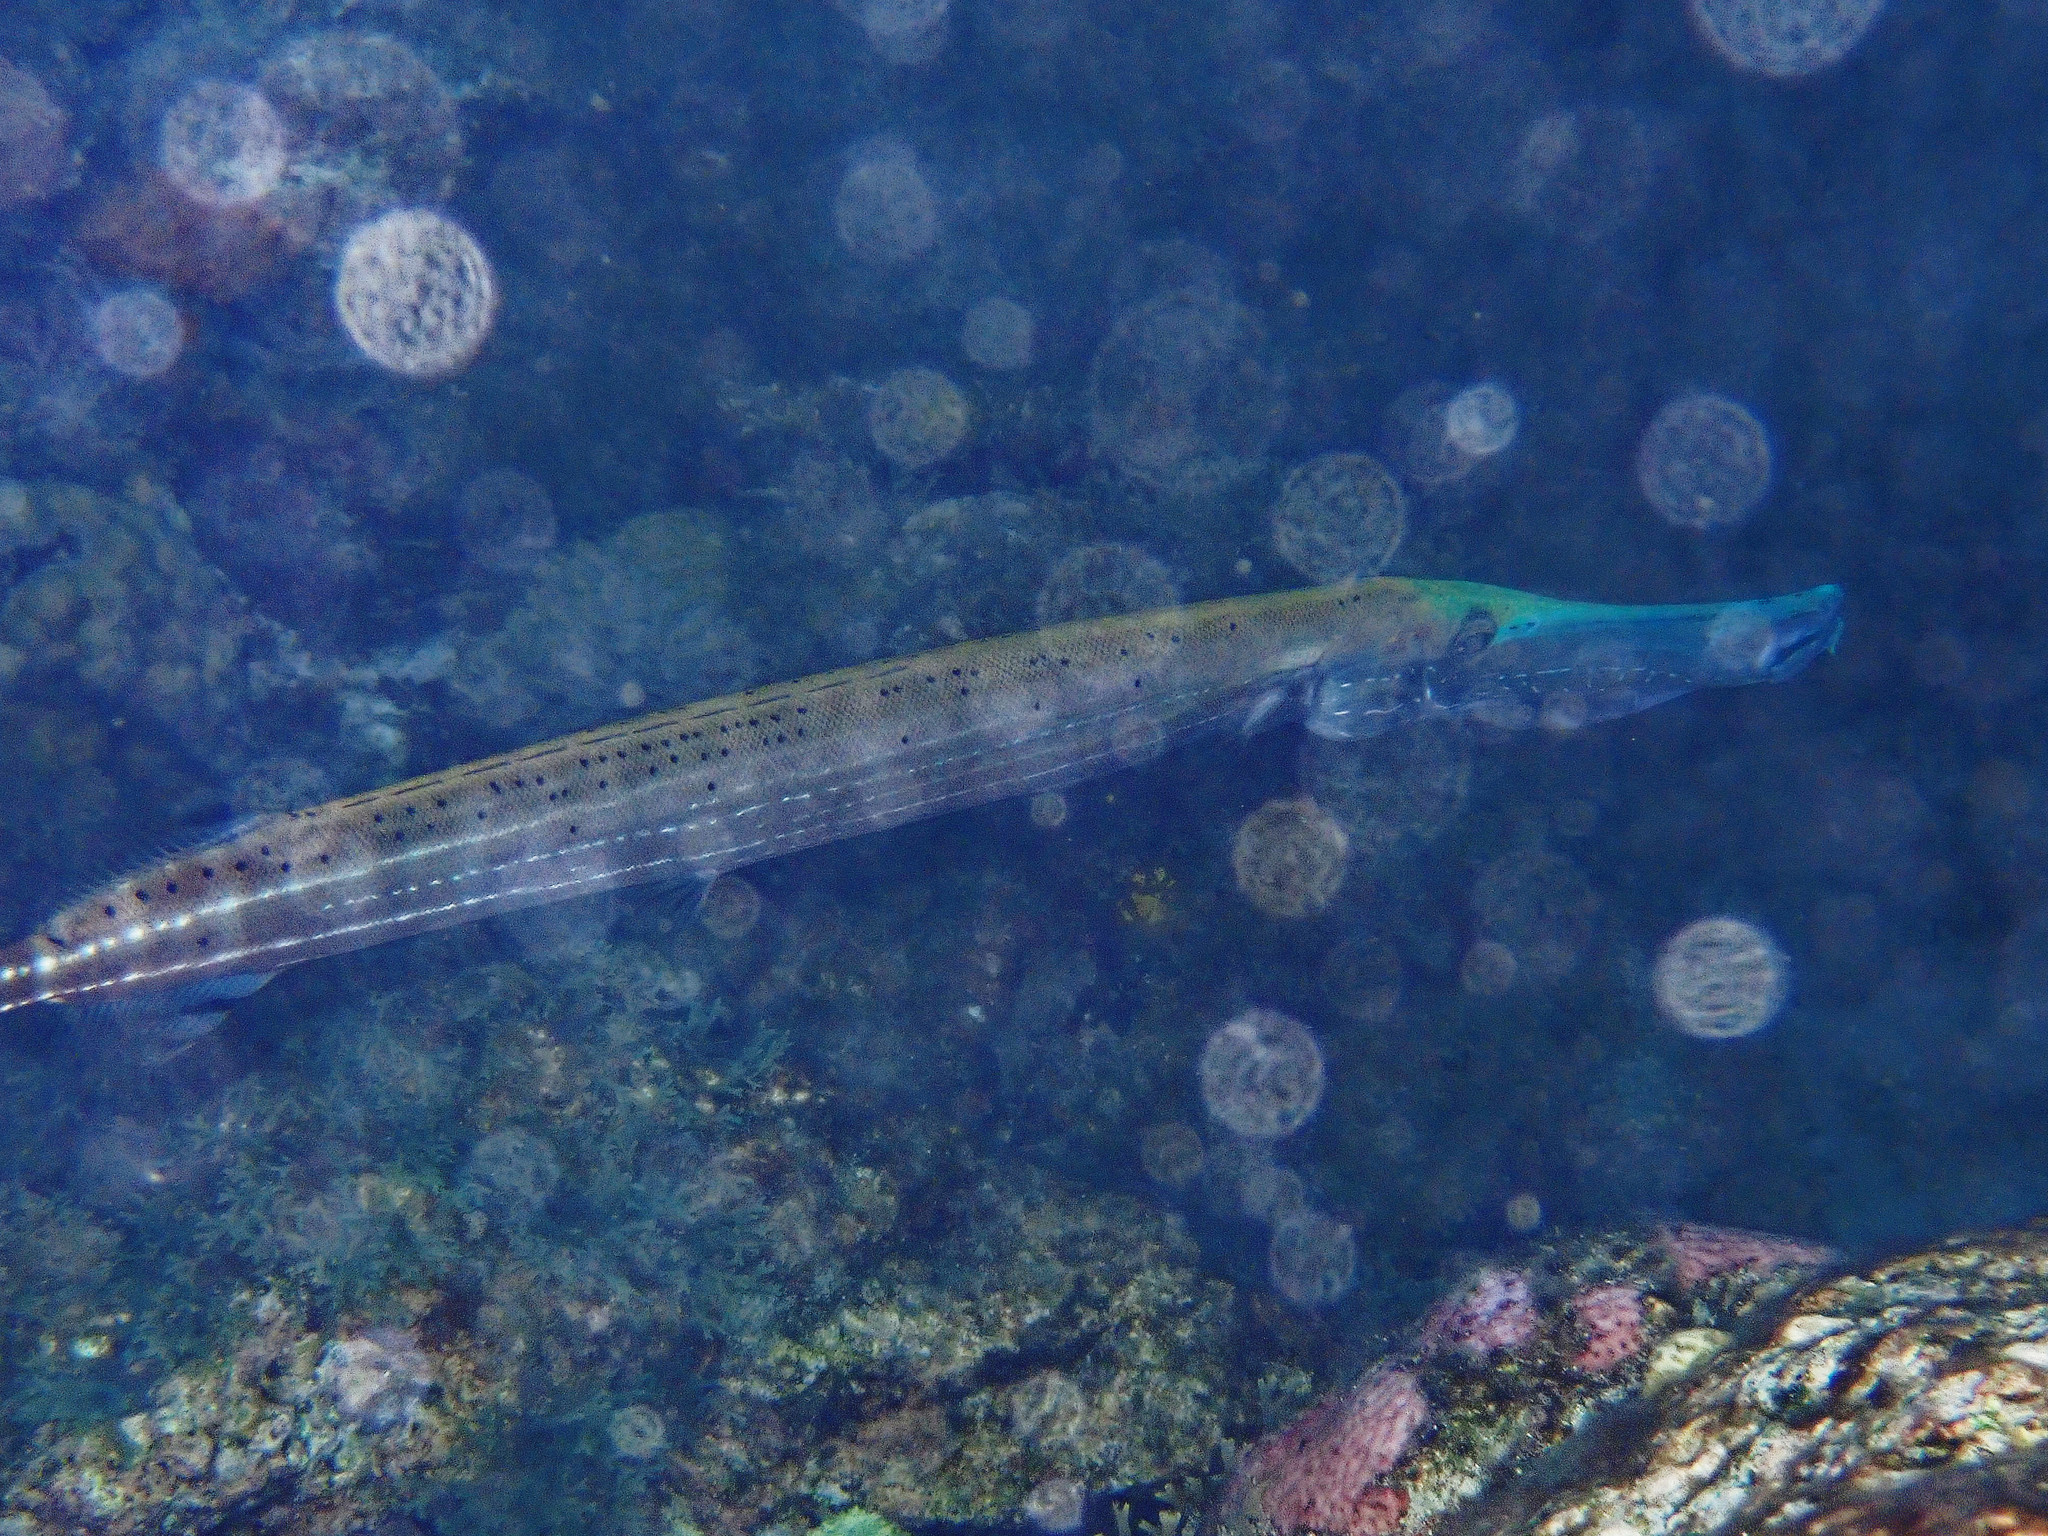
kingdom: Animalia
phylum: Chordata
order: Syngnathiformes
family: Aulostomidae
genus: Aulostomus
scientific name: Aulostomus maculatus
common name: West atlantic trumpetfish
